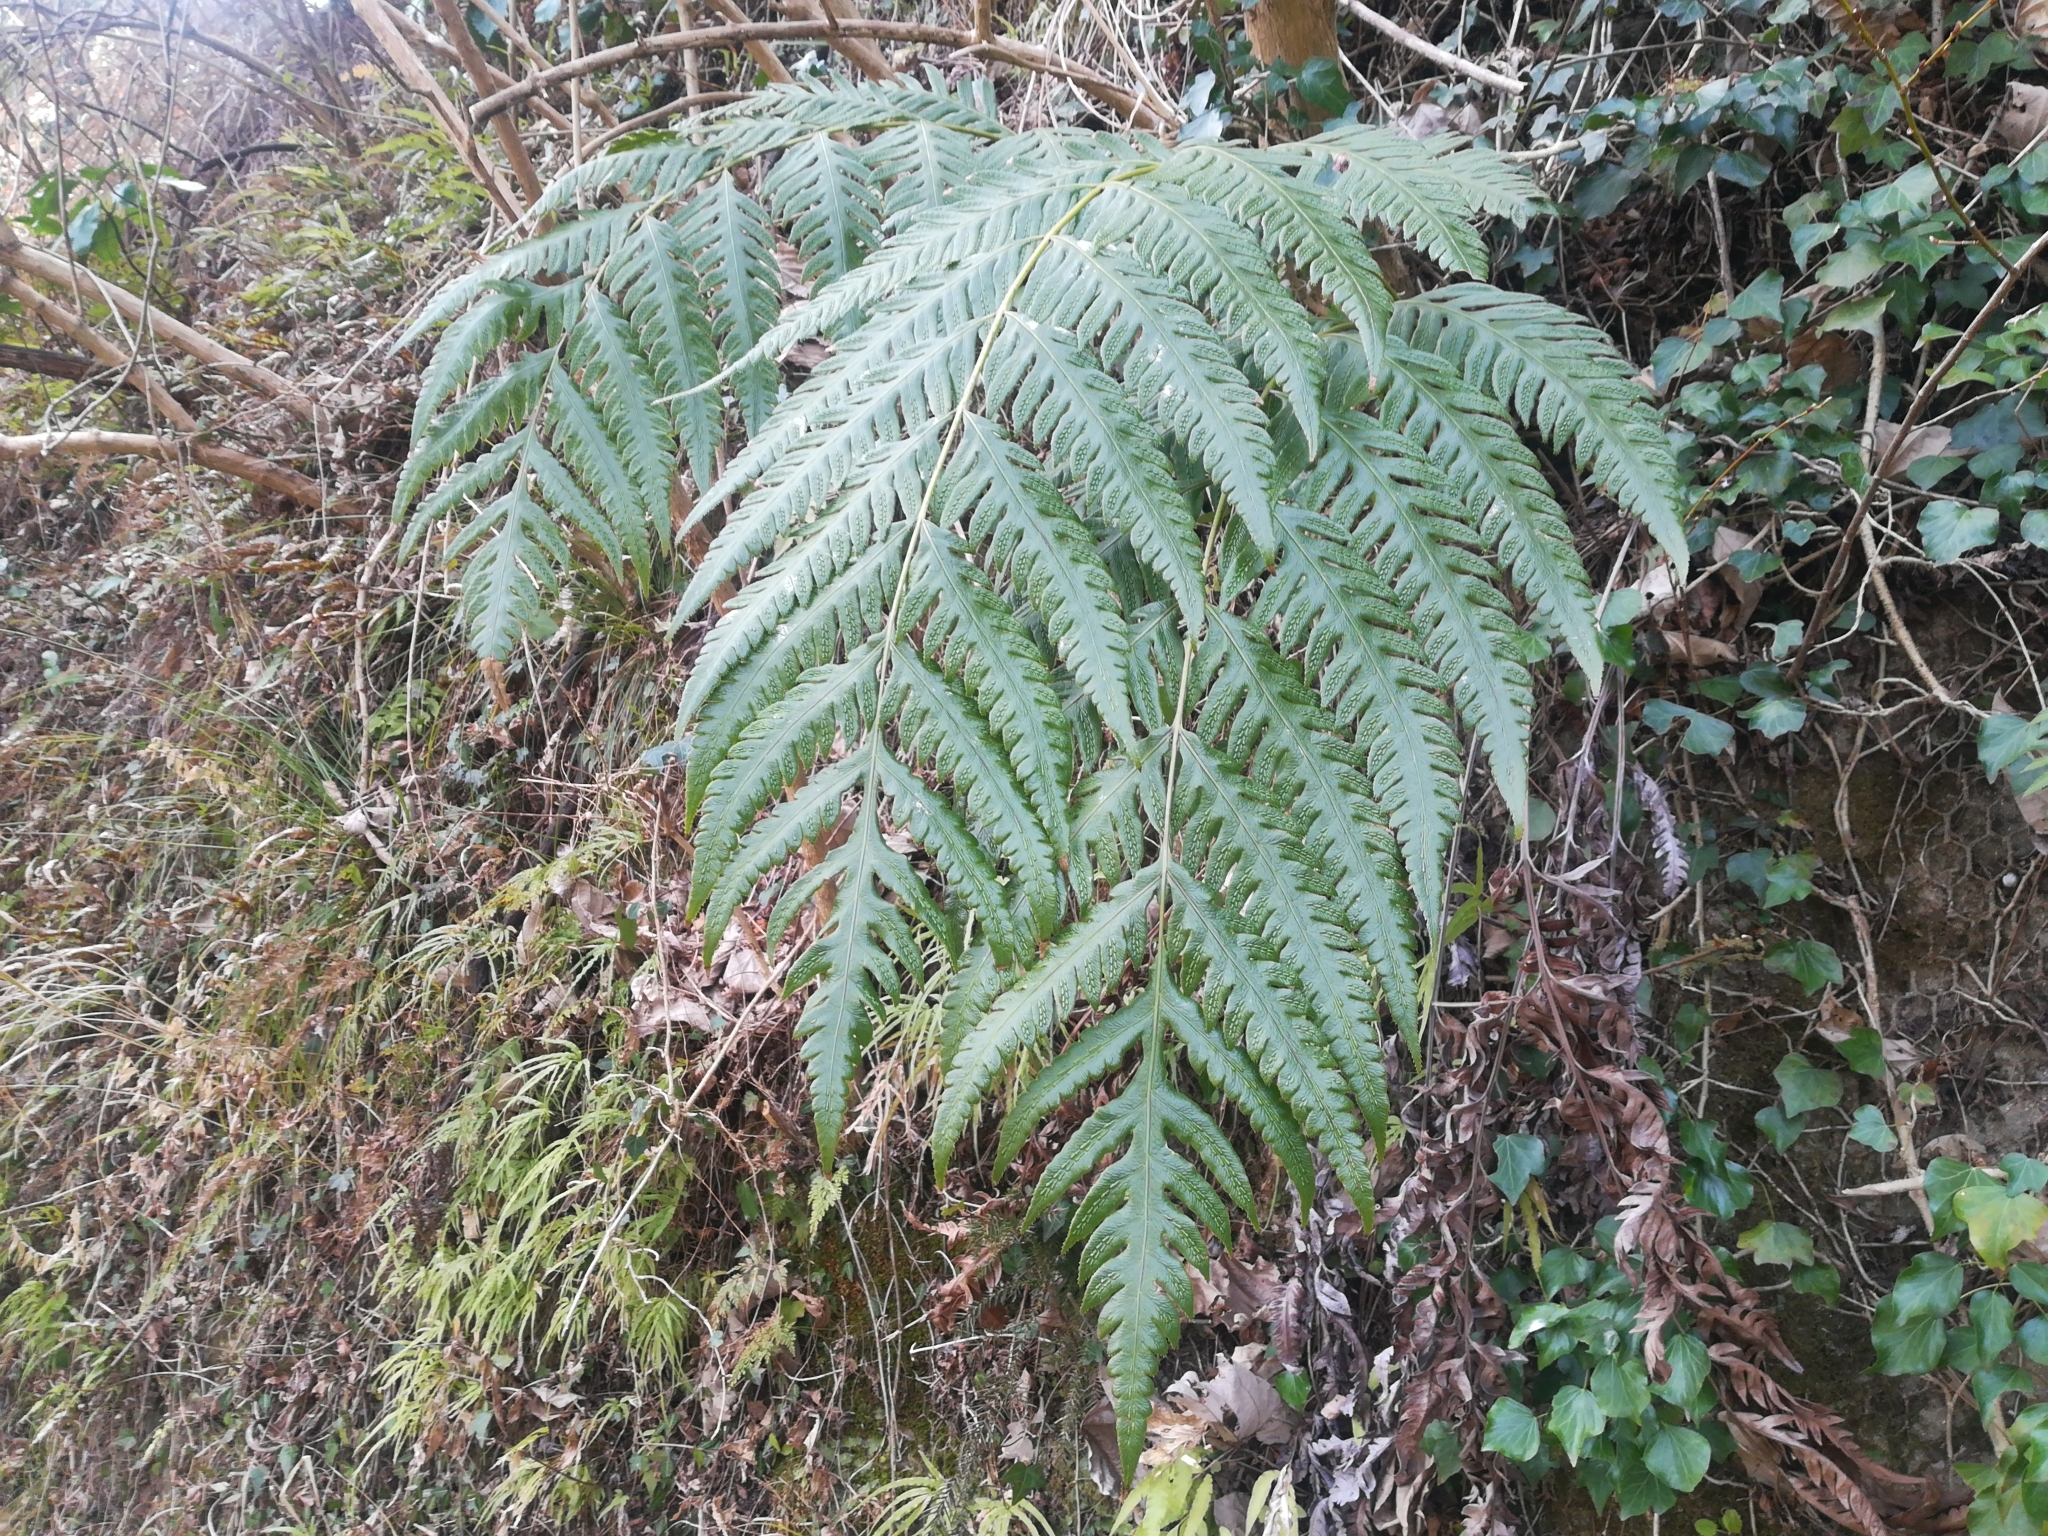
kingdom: Plantae
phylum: Tracheophyta
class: Polypodiopsida
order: Polypodiales
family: Blechnaceae
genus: Woodwardia
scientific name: Woodwardia orientalis
